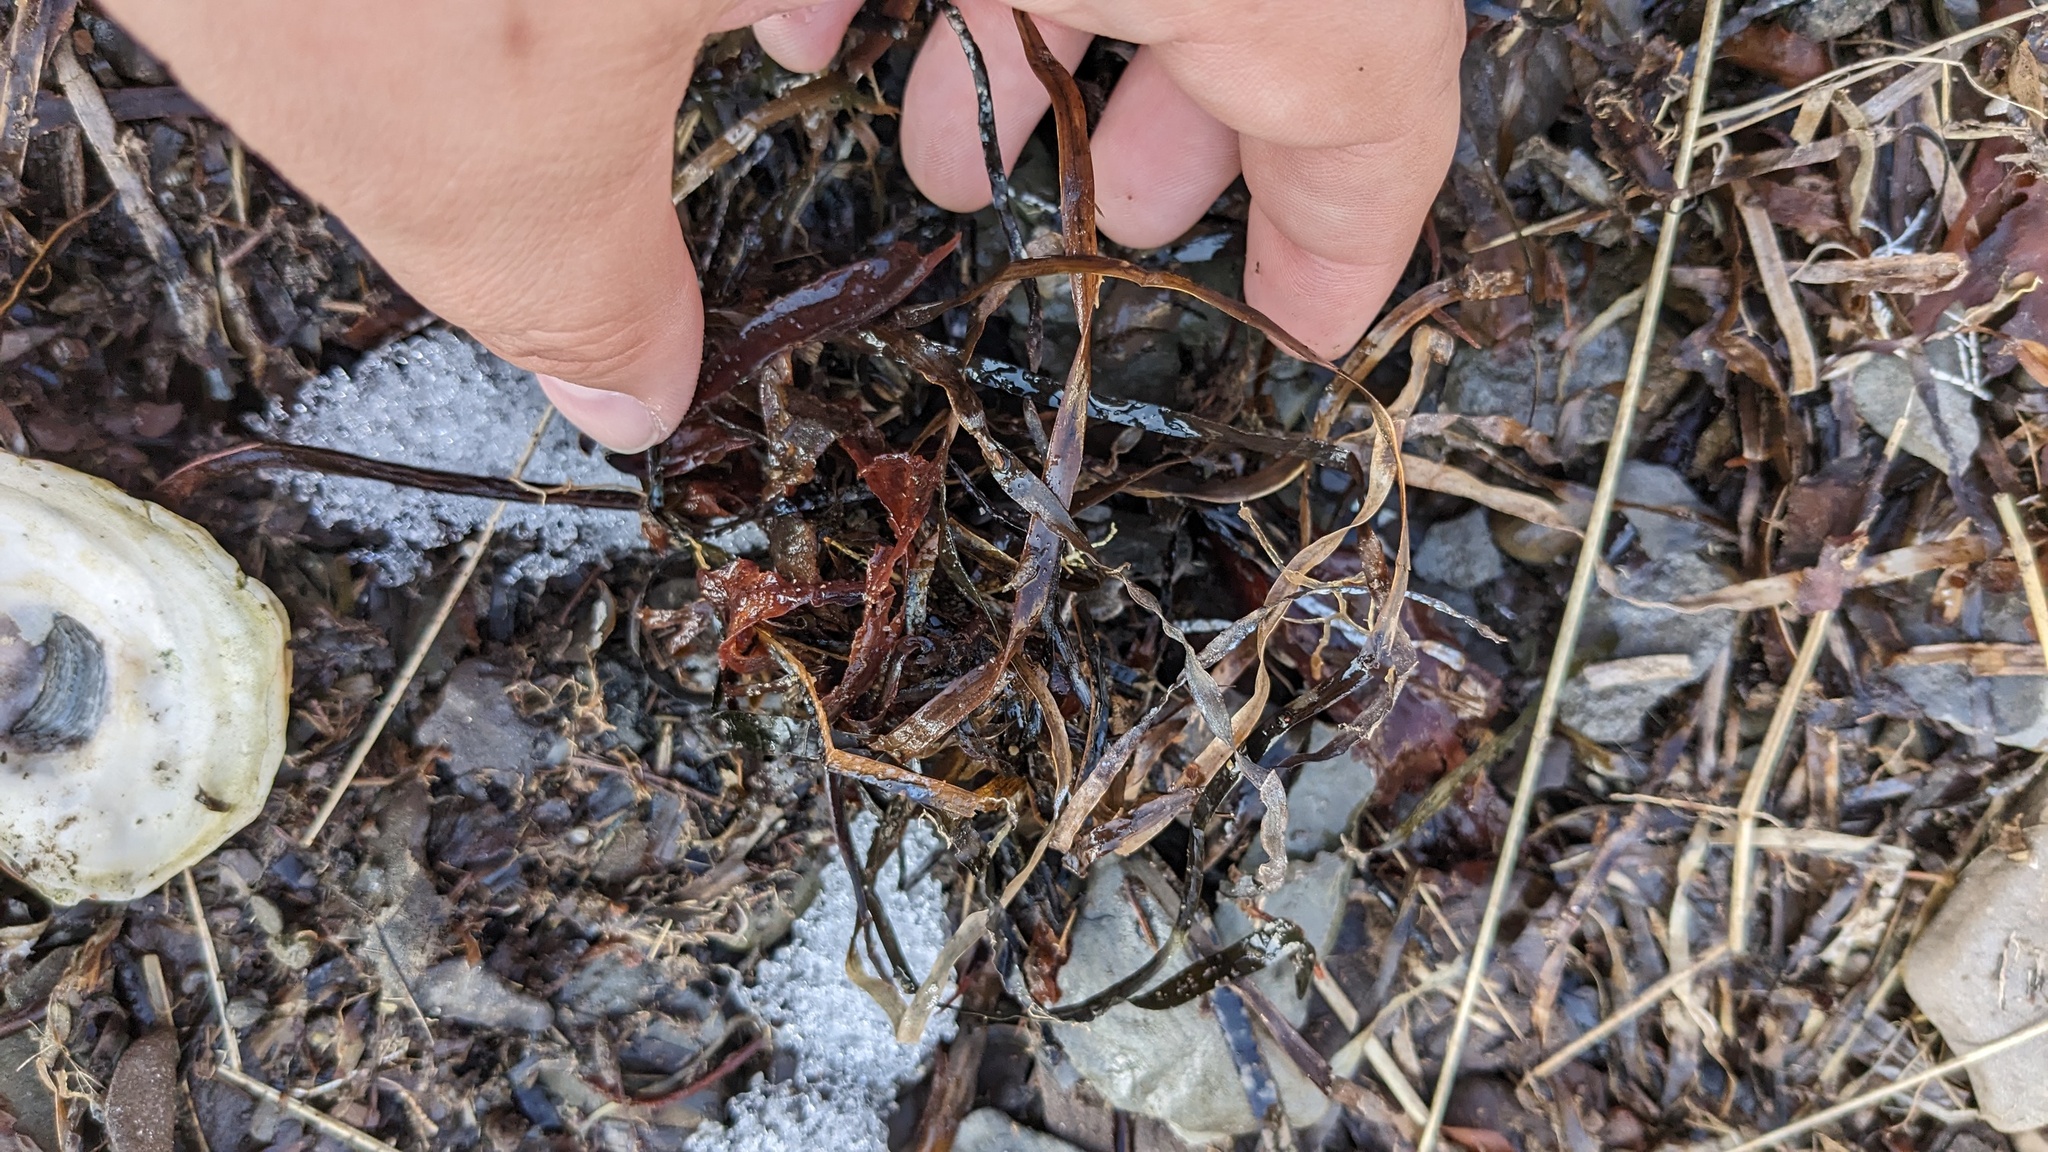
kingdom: Plantae
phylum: Tracheophyta
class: Liliopsida
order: Alismatales
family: Zosteraceae
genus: Zostera
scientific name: Zostera marina
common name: Eelgrass
